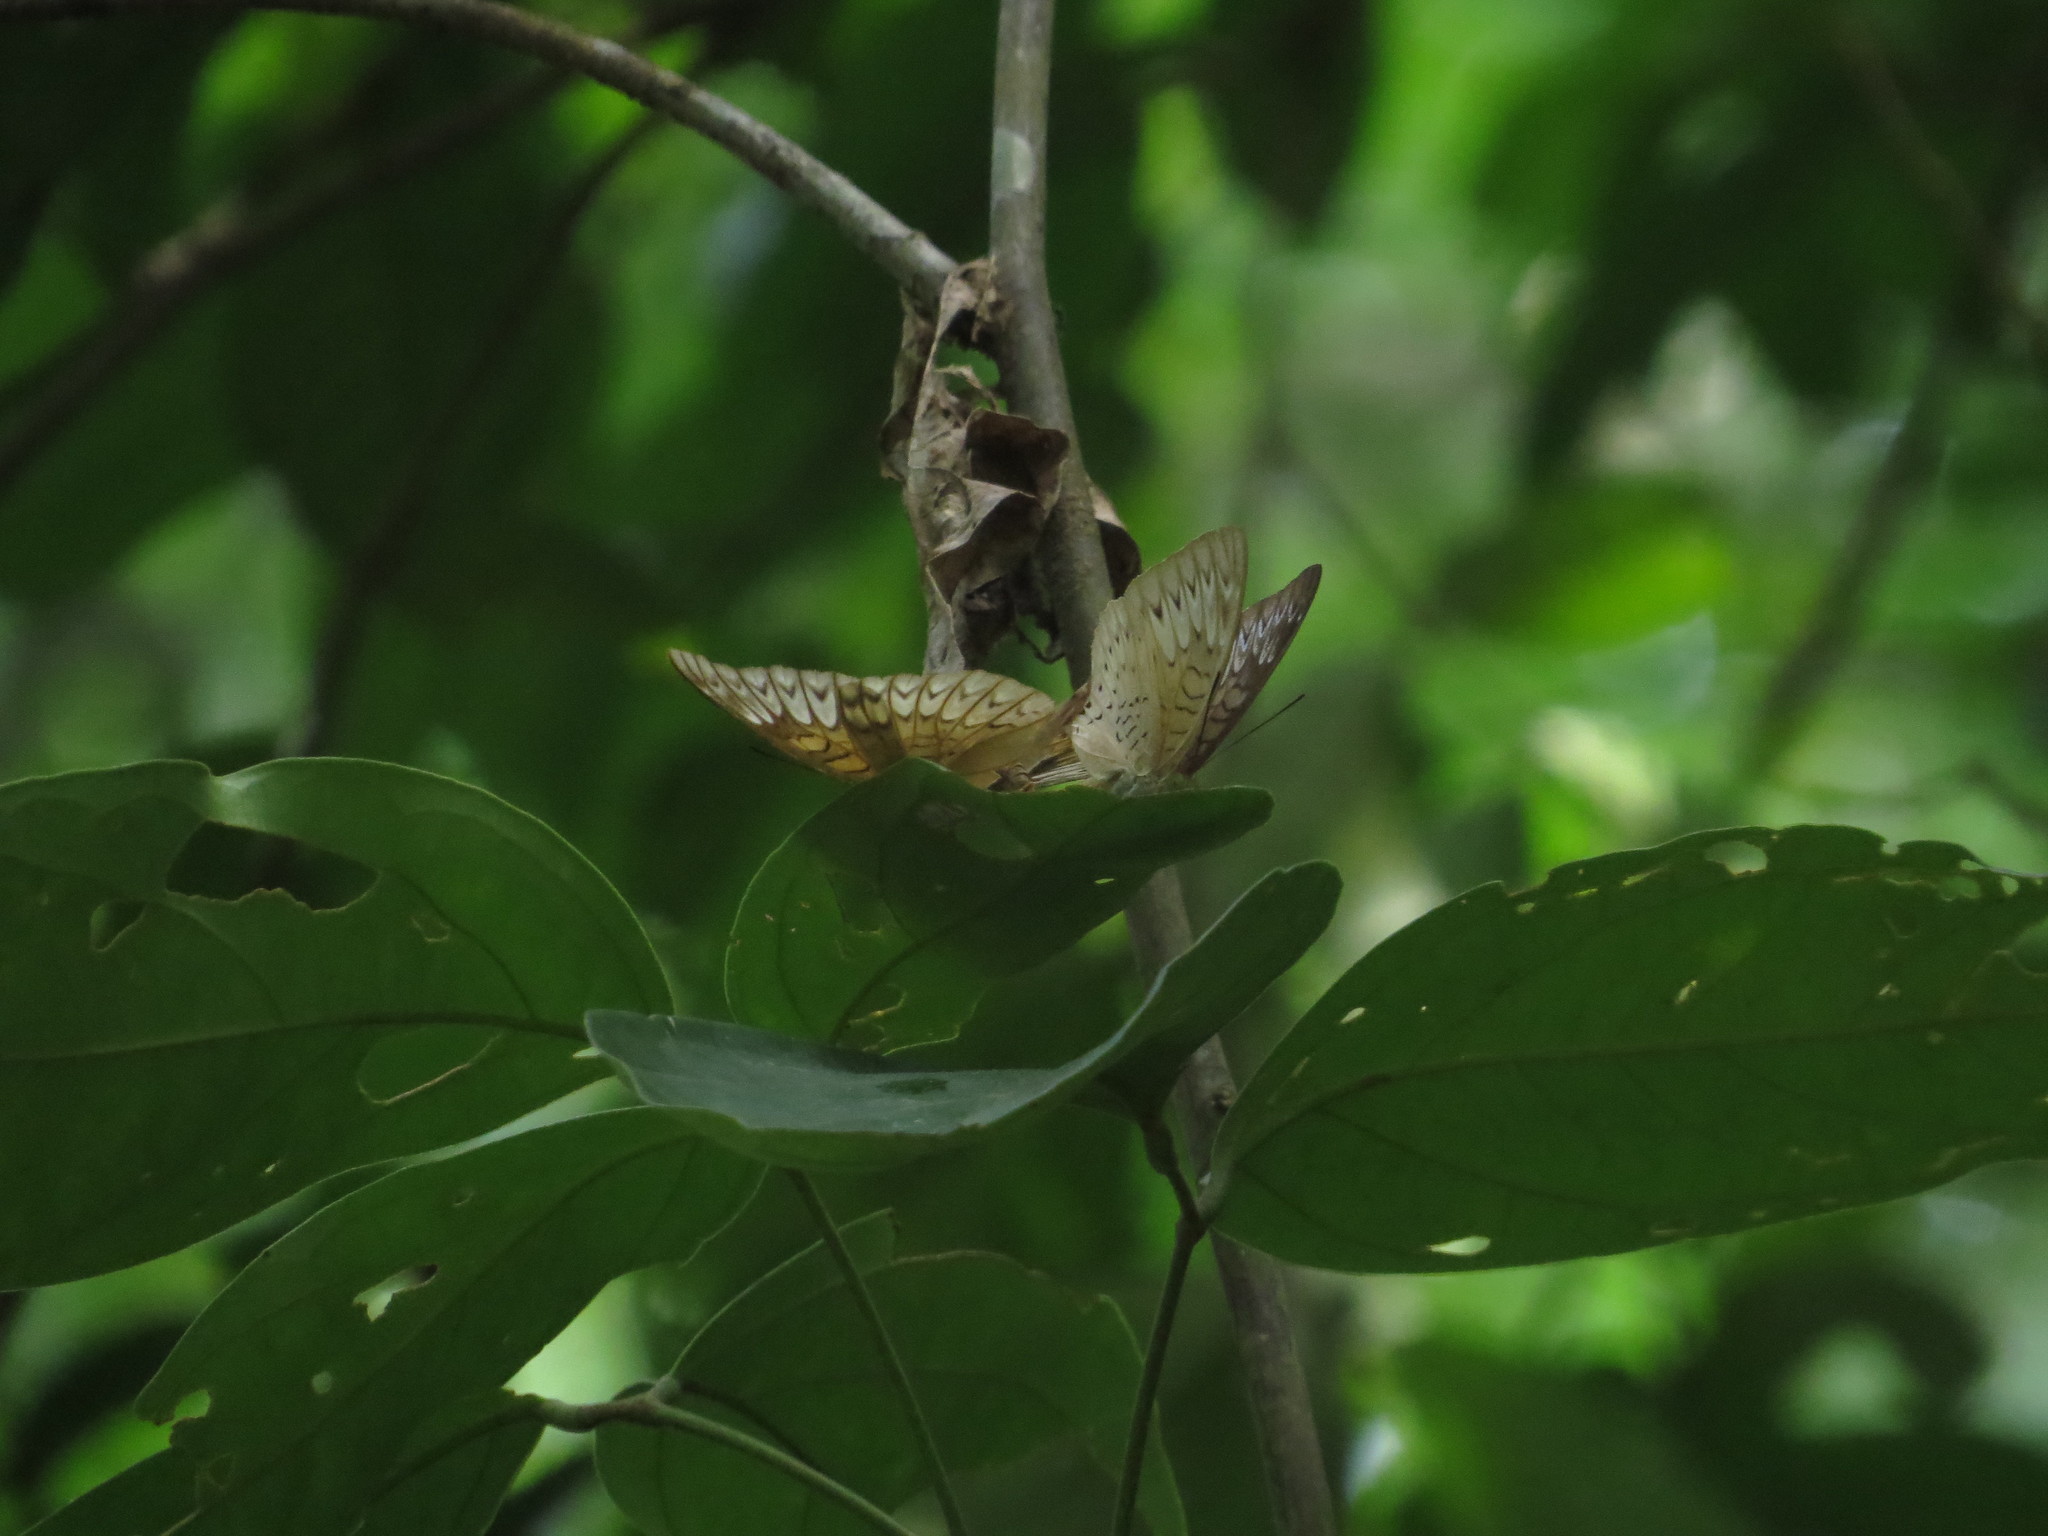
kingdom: Animalia
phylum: Arthropoda
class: Insecta
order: Lepidoptera
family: Nymphalidae
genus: Tanaecia
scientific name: Tanaecia pelea
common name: Malay viscount
